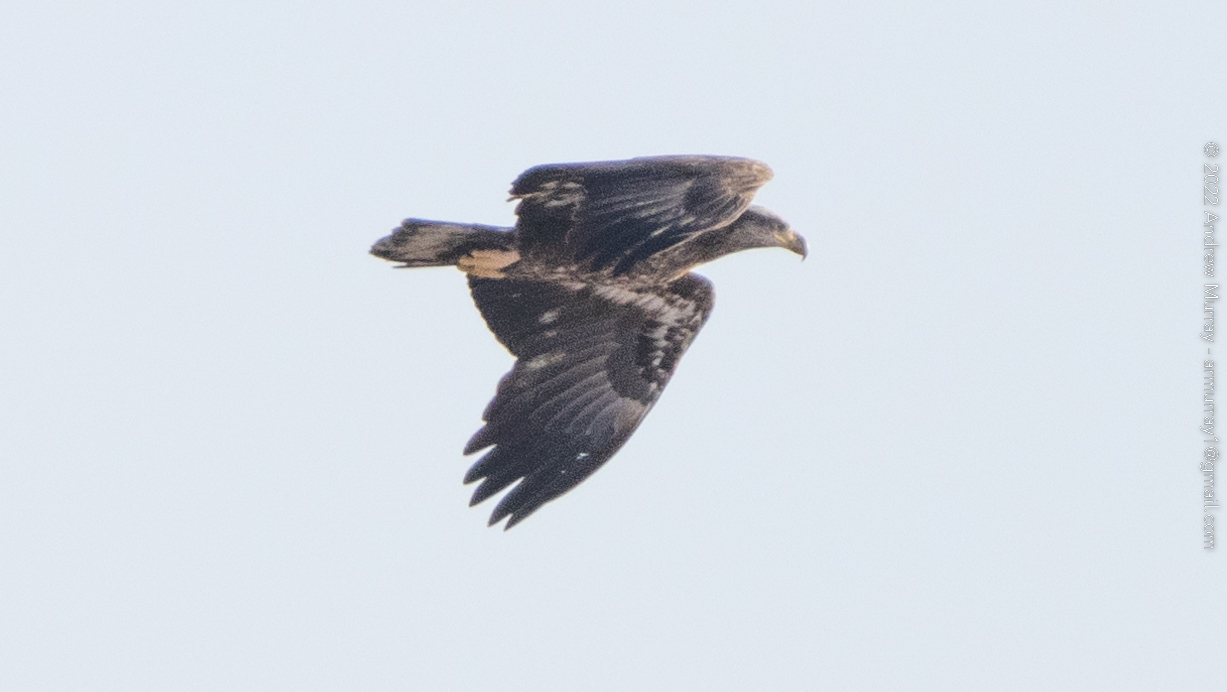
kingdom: Animalia
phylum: Chordata
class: Aves
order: Accipitriformes
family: Accipitridae
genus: Haliaeetus
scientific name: Haliaeetus leucocephalus
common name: Bald eagle
